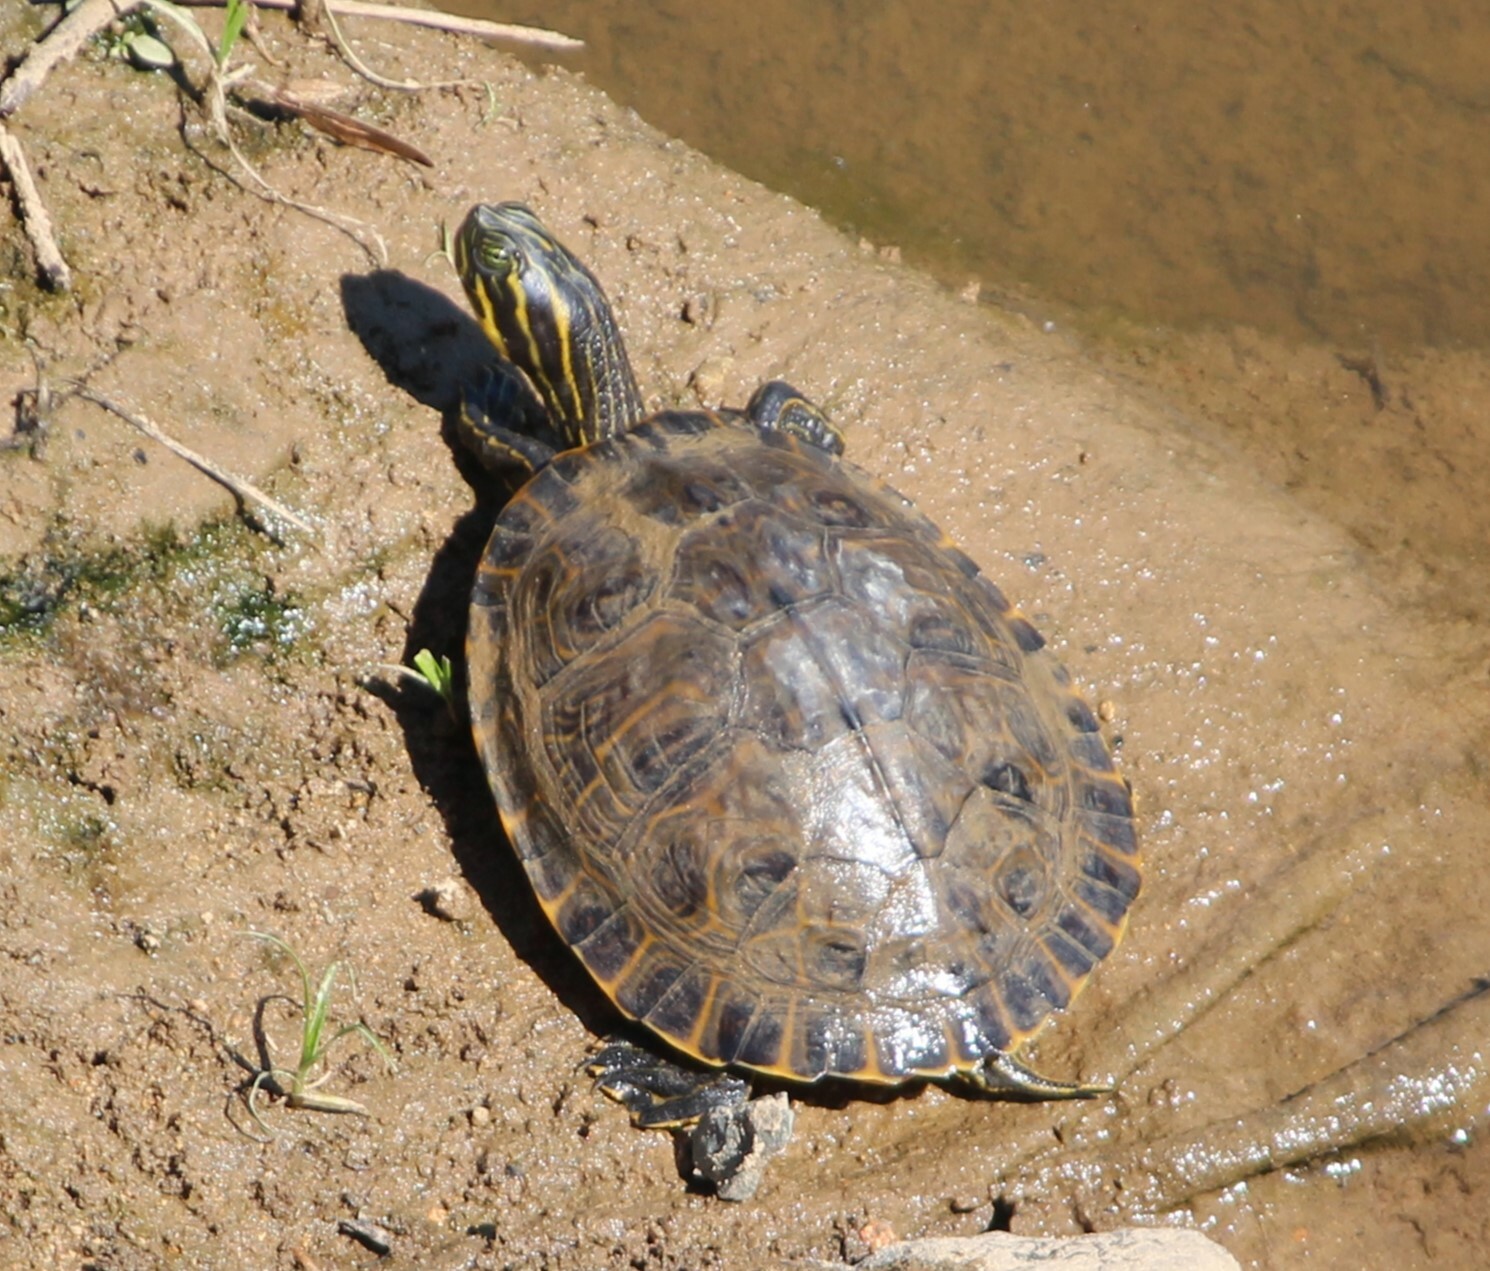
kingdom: Animalia
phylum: Chordata
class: Testudines
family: Emydidae
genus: Pseudemys
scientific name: Pseudemys concinna
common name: Eastern river cooter
